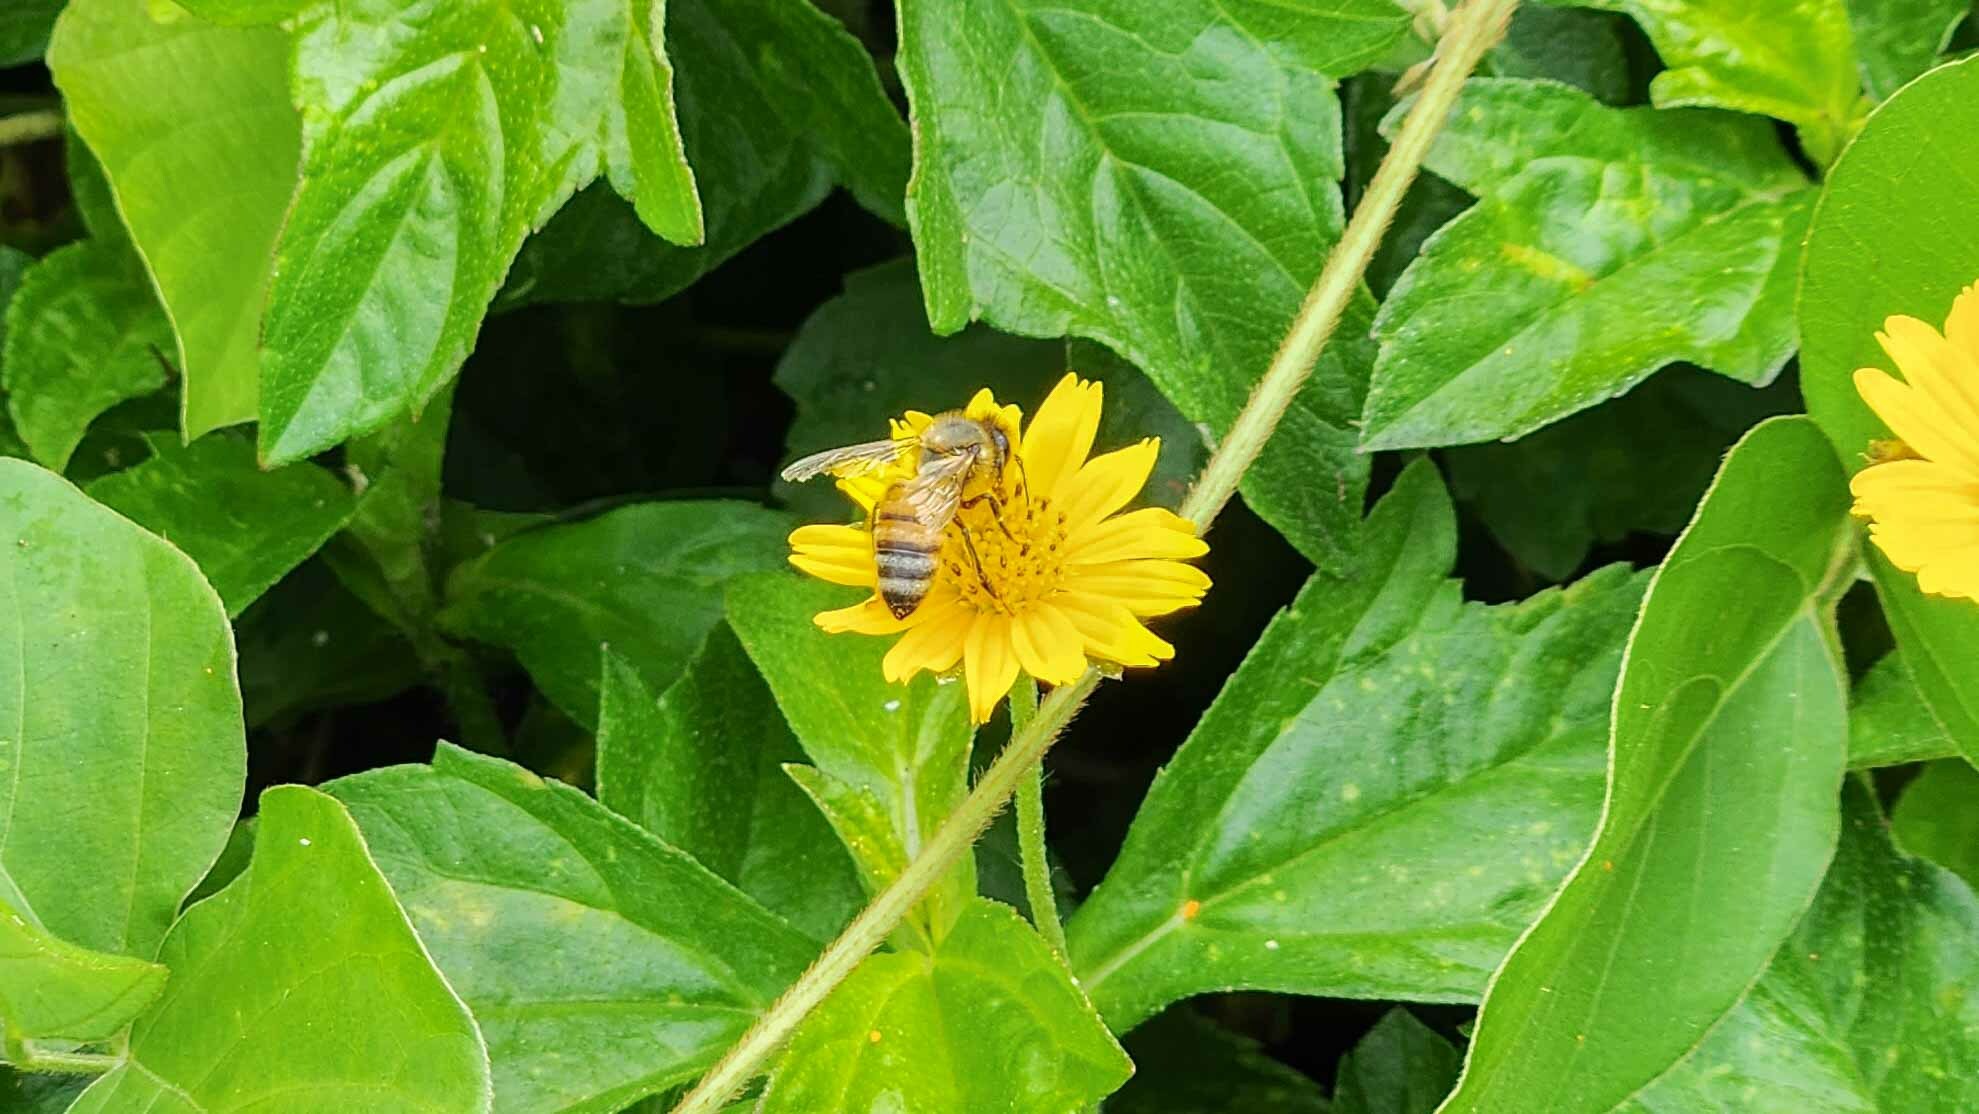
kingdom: Animalia
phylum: Arthropoda
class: Insecta
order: Hymenoptera
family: Apidae
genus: Apis
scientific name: Apis mellifera
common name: Honey bee
